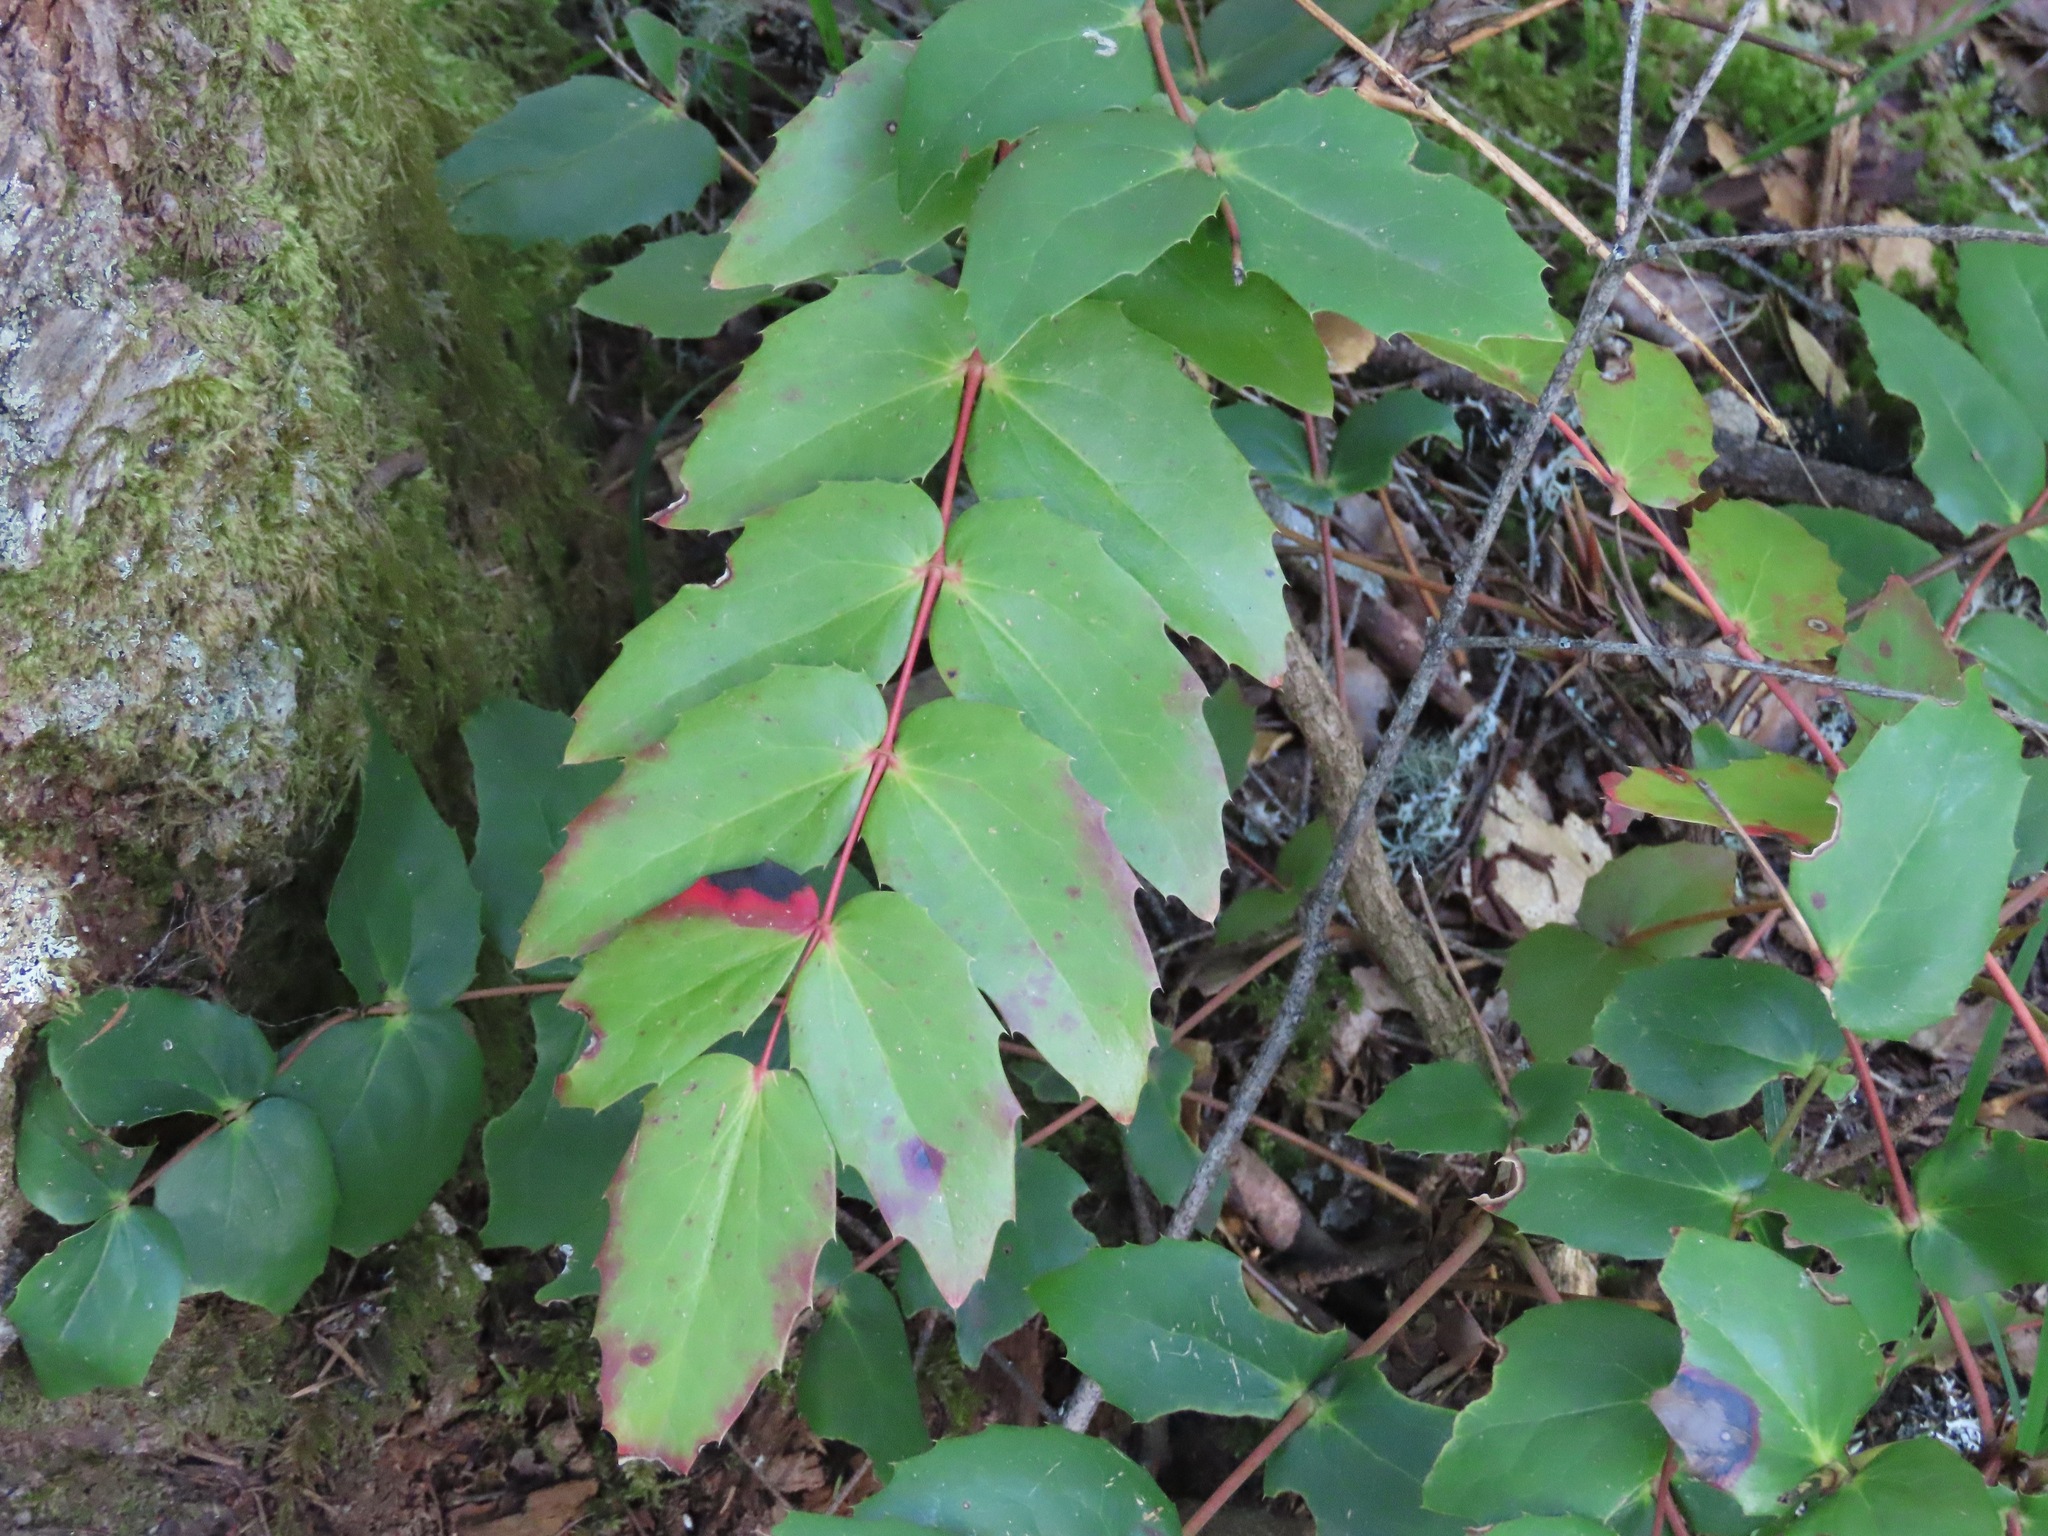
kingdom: Plantae
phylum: Tracheophyta
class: Magnoliopsida
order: Ranunculales
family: Berberidaceae
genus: Mahonia
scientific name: Mahonia nervosa
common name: Cascade oregon-grape
